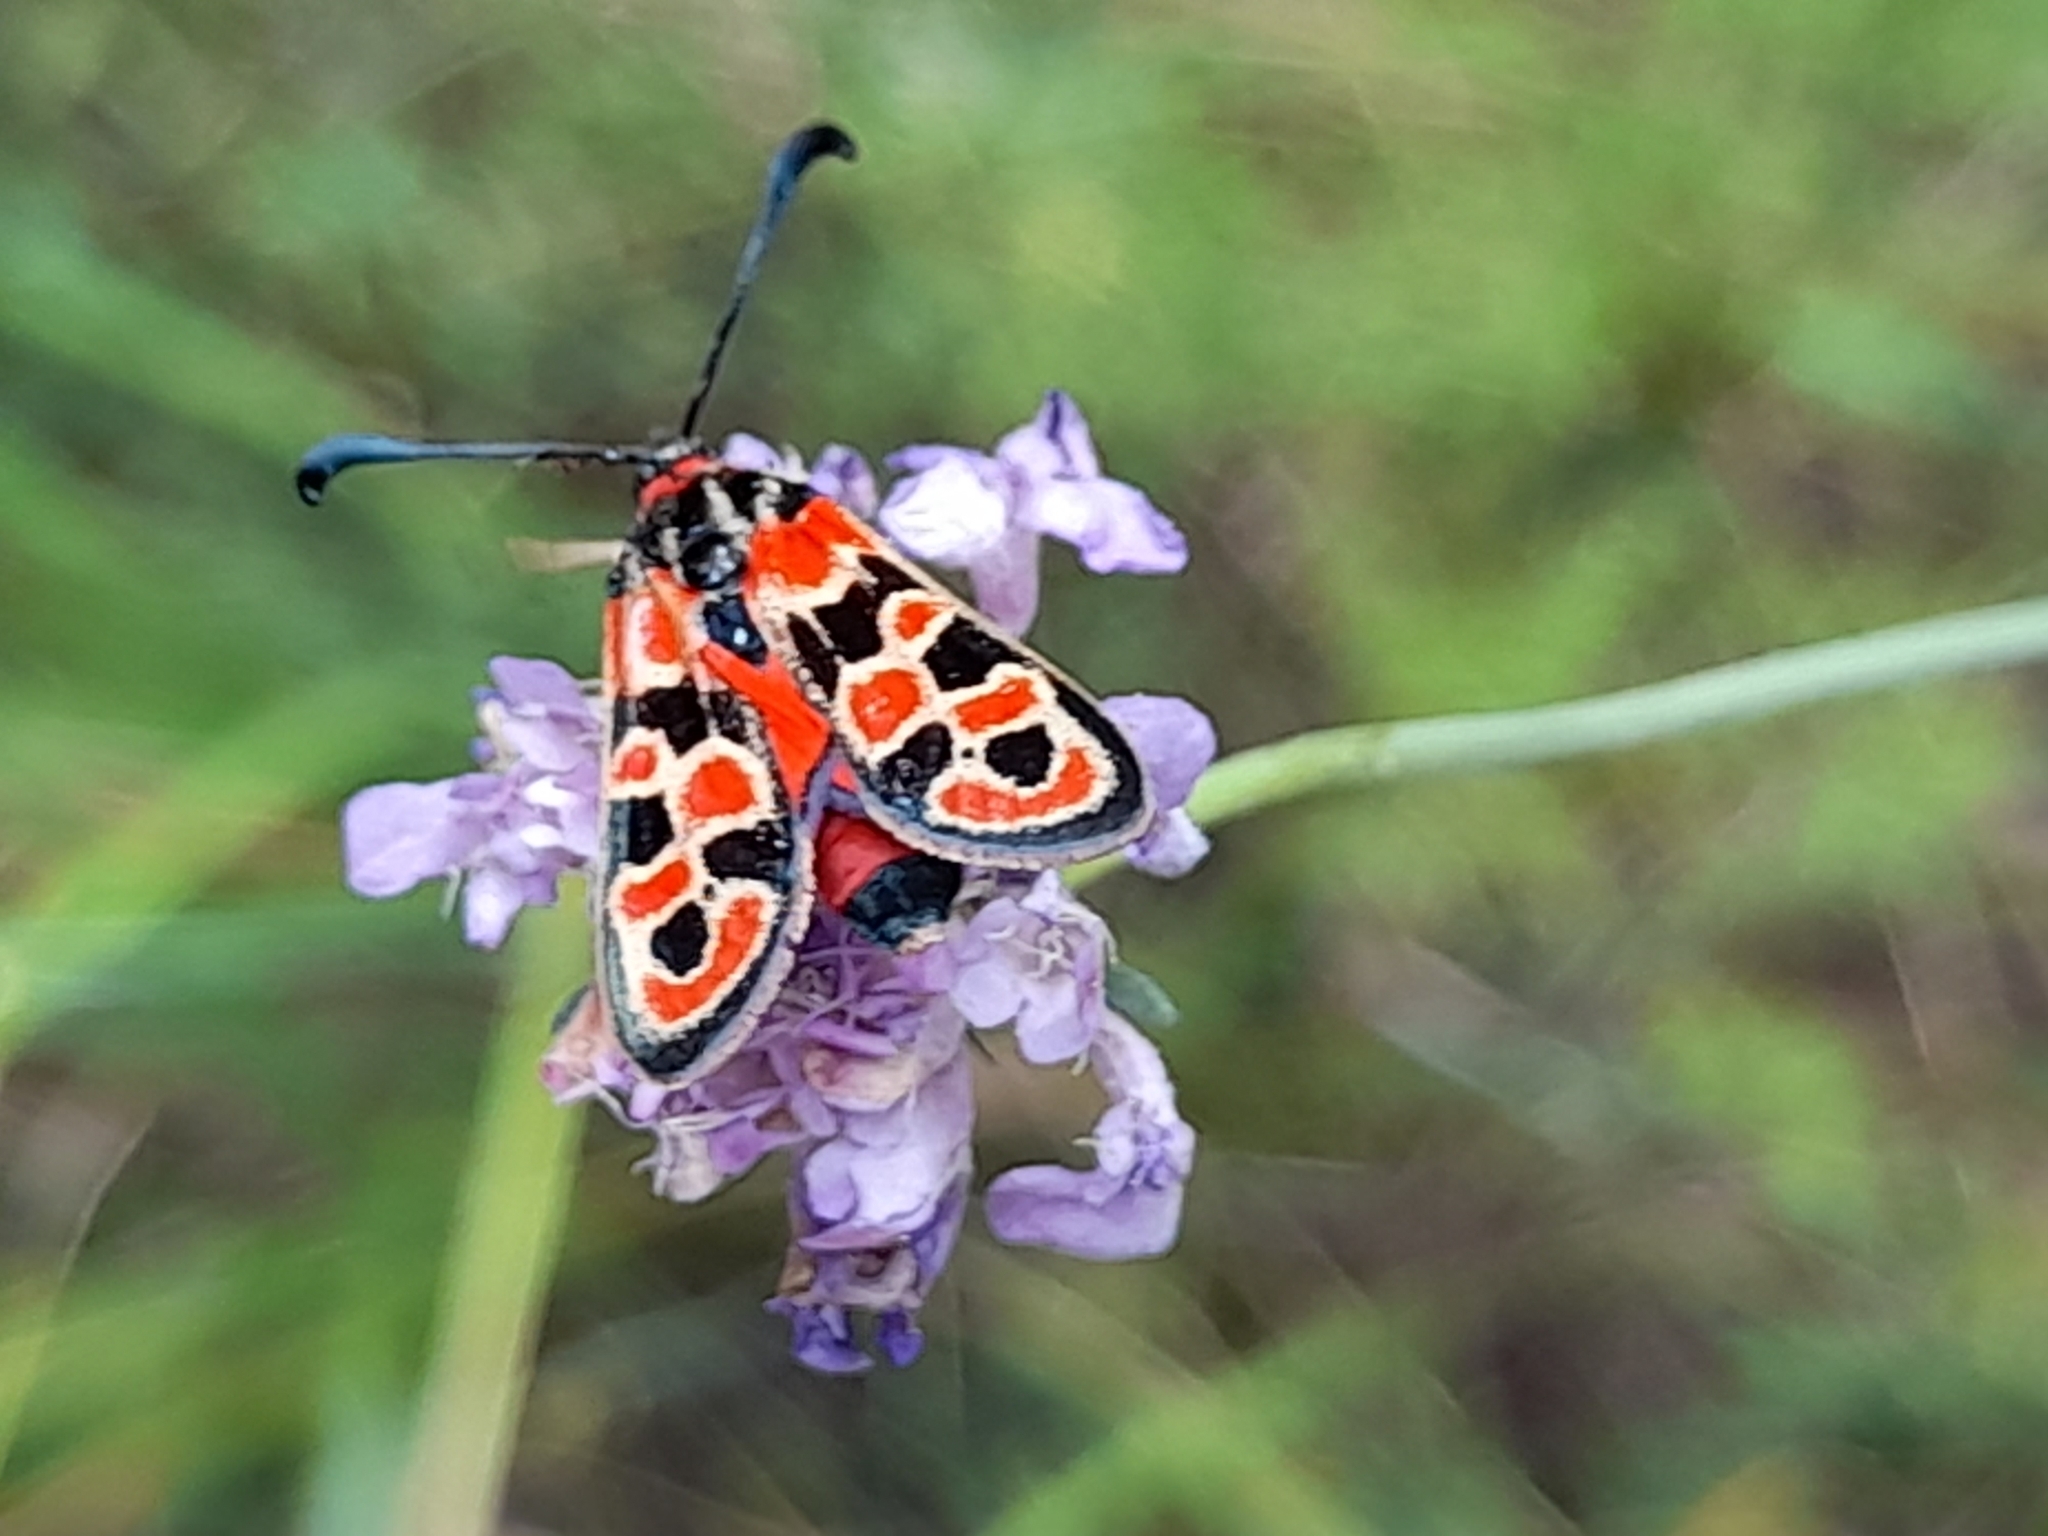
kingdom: Animalia
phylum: Arthropoda
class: Insecta
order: Lepidoptera
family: Zygaenidae
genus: Zygaena
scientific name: Zygaena fausta
